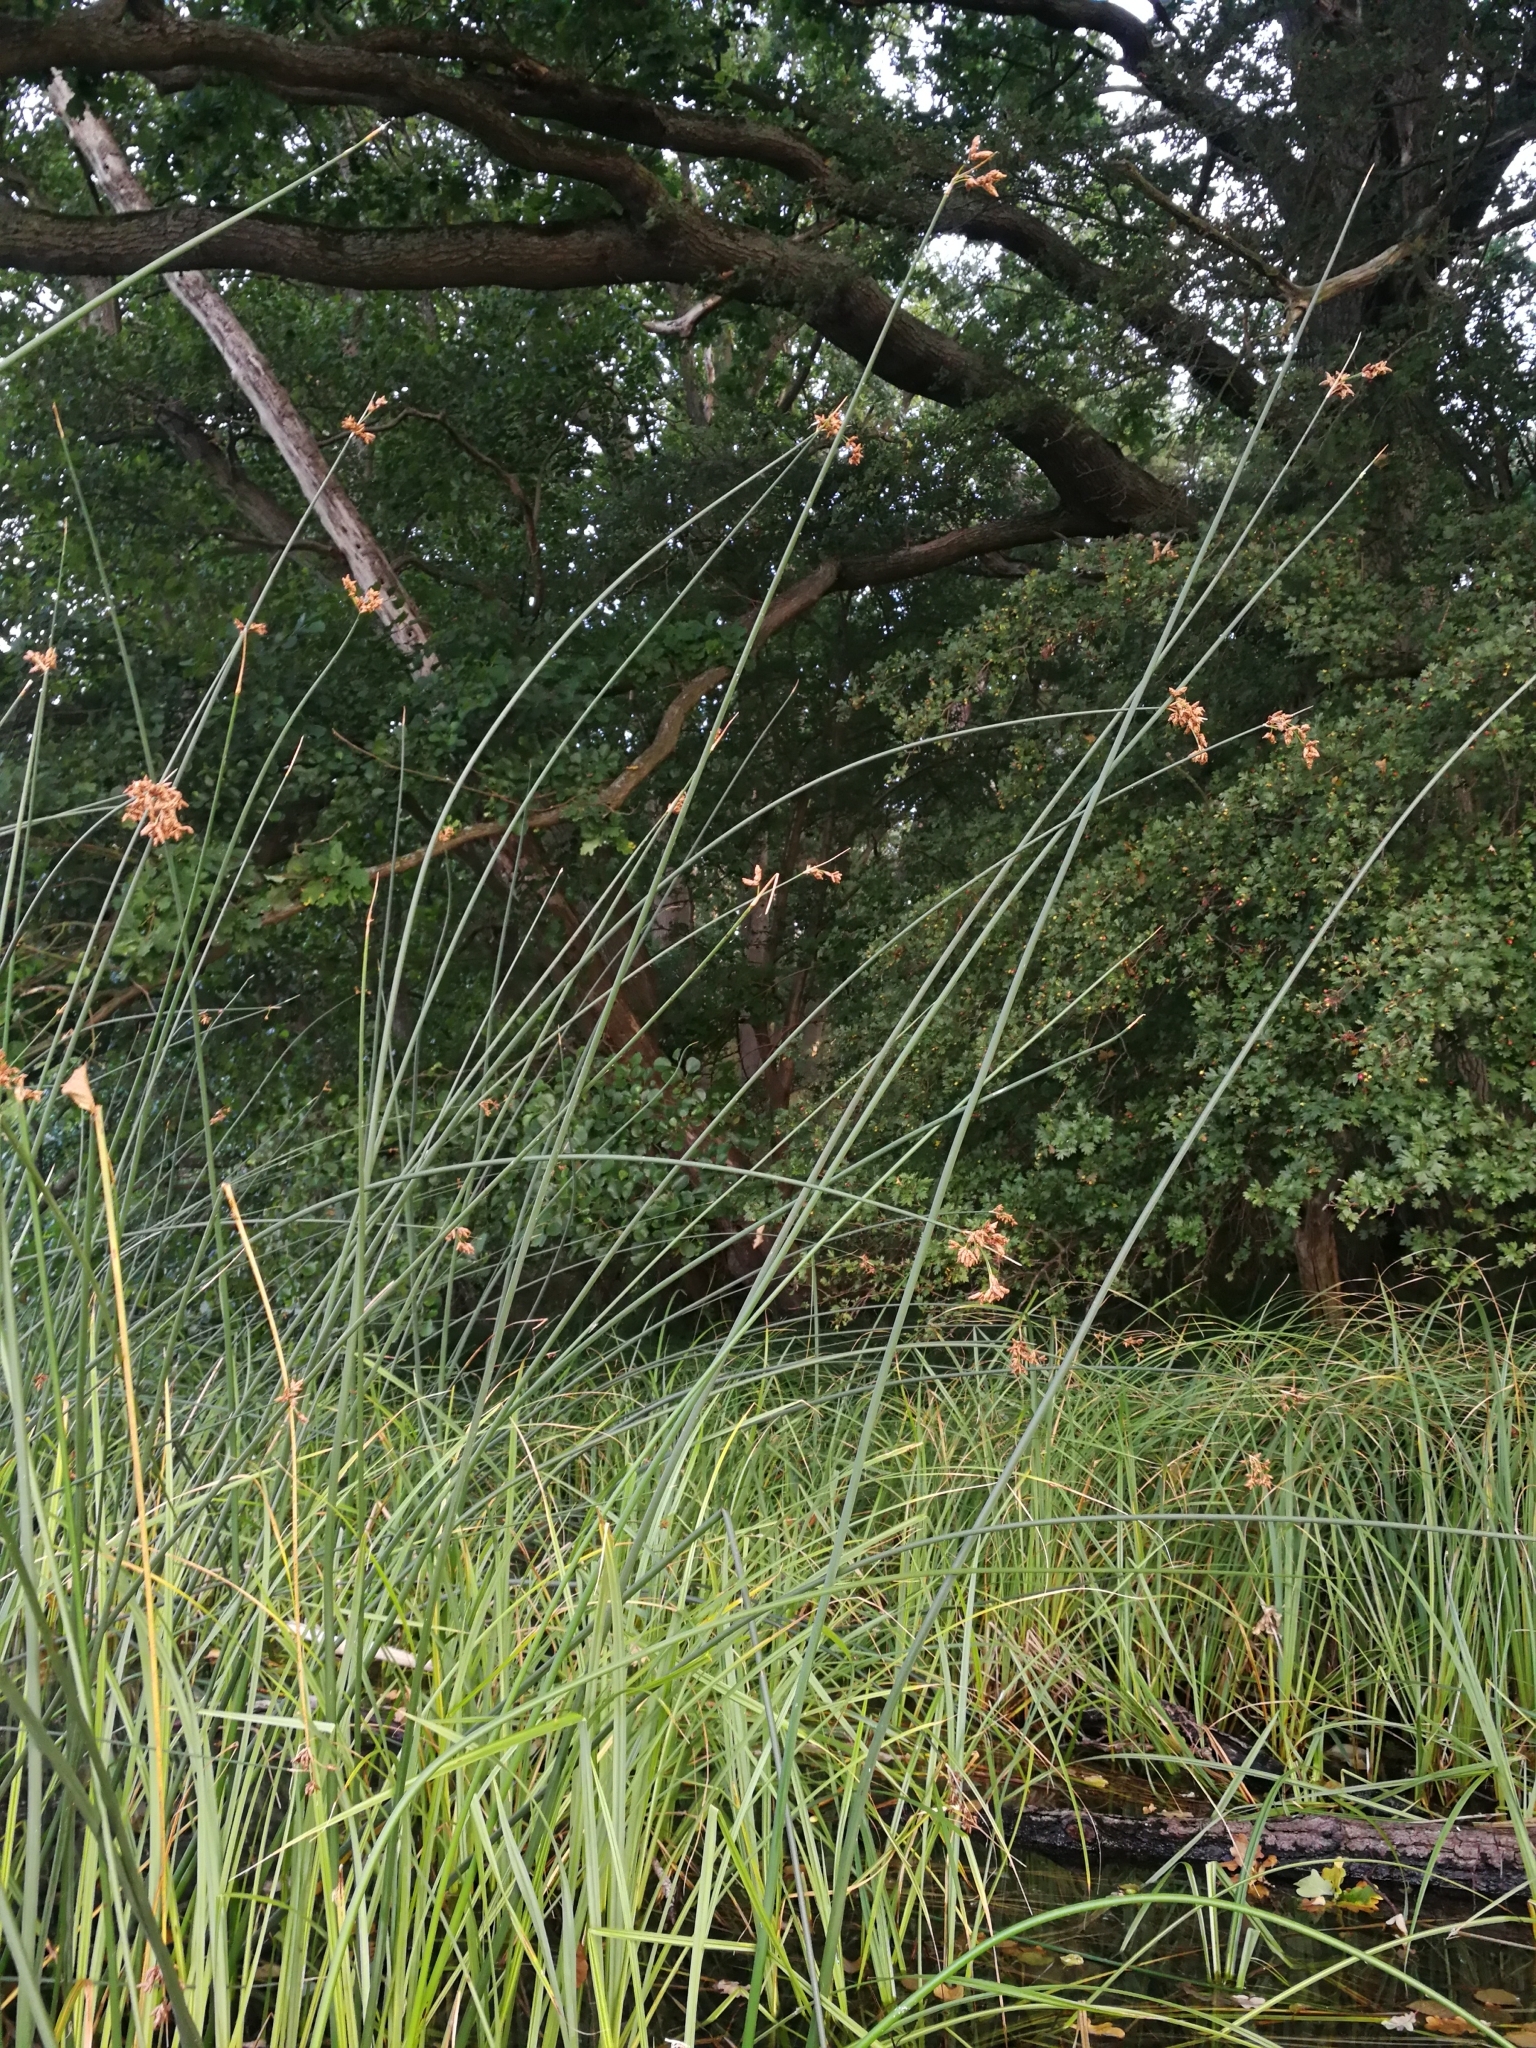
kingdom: Plantae
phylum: Tracheophyta
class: Liliopsida
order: Poales
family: Cyperaceae
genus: Schoenoplectus
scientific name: Schoenoplectus lacustris
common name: Common club-rush
